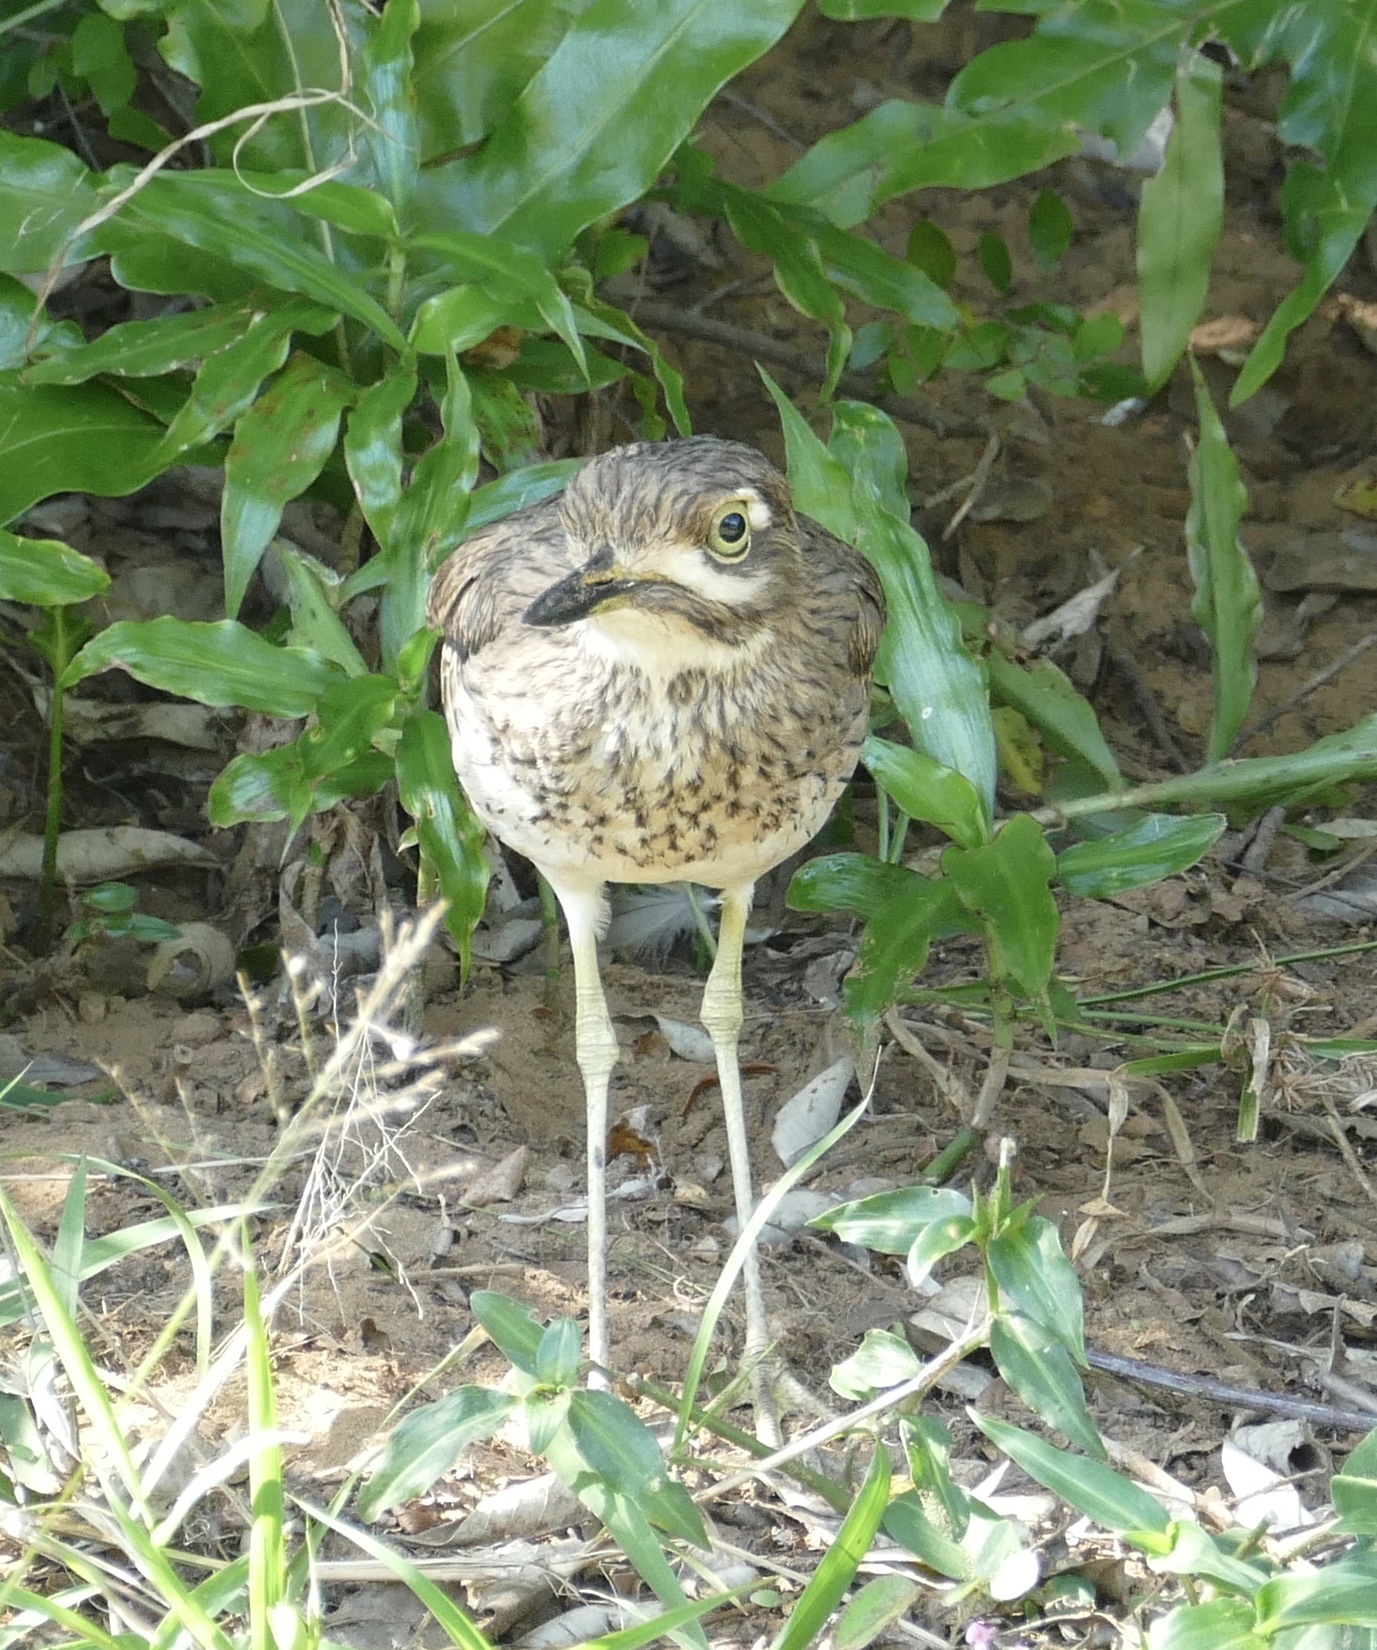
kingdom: Animalia
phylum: Chordata
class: Aves
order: Charadriiformes
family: Burhinidae
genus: Burhinus
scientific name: Burhinus vermiculatus
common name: Water thick-knee
